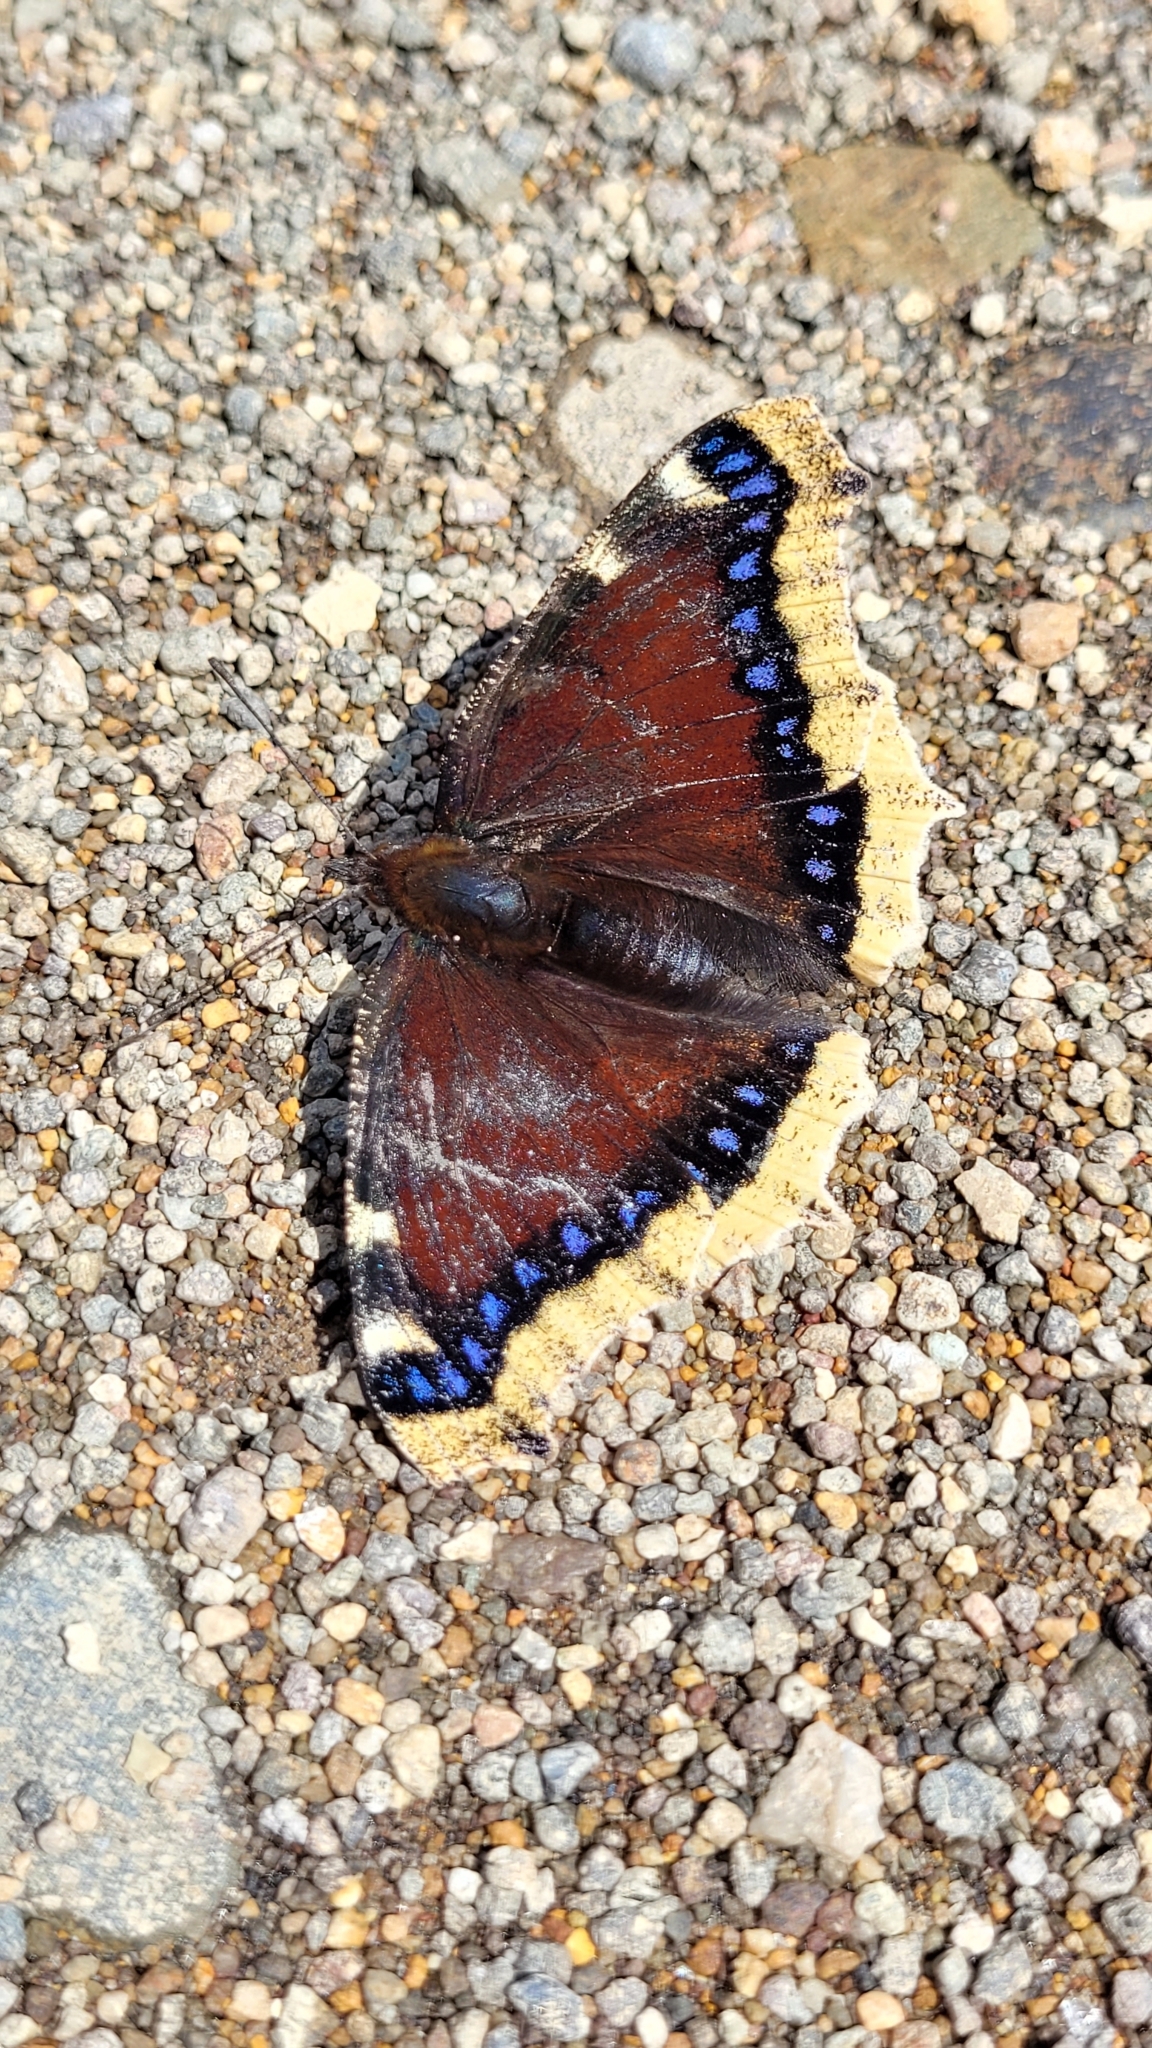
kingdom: Animalia
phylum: Arthropoda
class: Insecta
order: Lepidoptera
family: Nymphalidae
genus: Nymphalis
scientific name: Nymphalis antiopa
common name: Camberwell beauty
